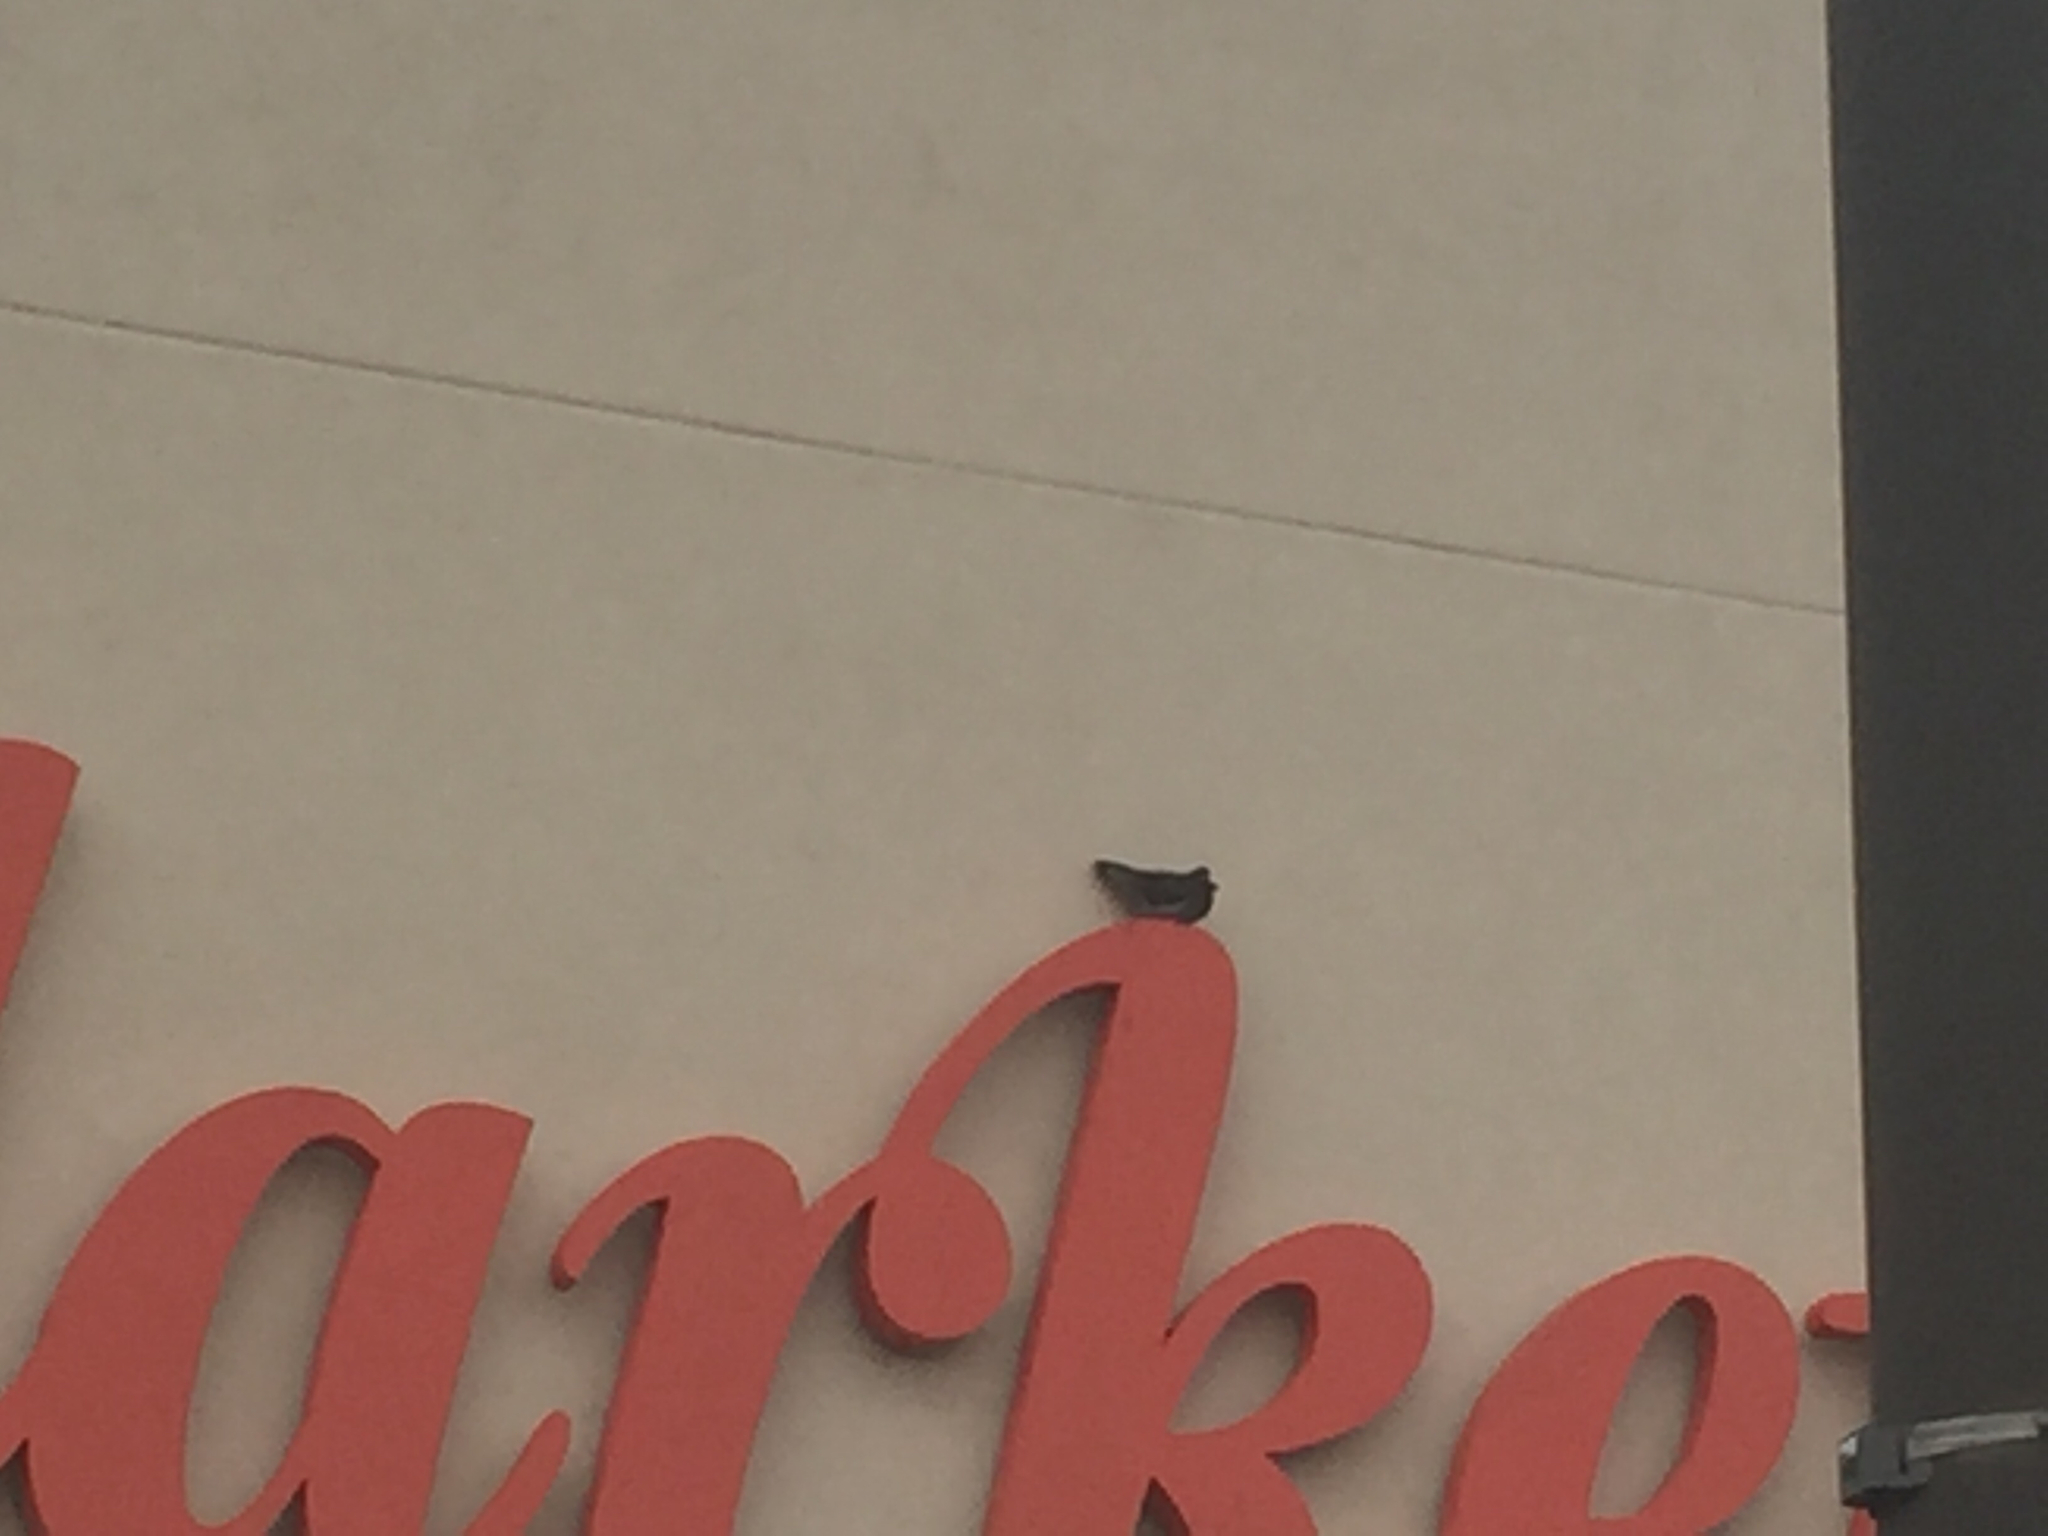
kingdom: Animalia
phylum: Chordata
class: Aves
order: Columbiformes
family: Columbidae
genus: Columba
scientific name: Columba livia
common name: Rock pigeon
